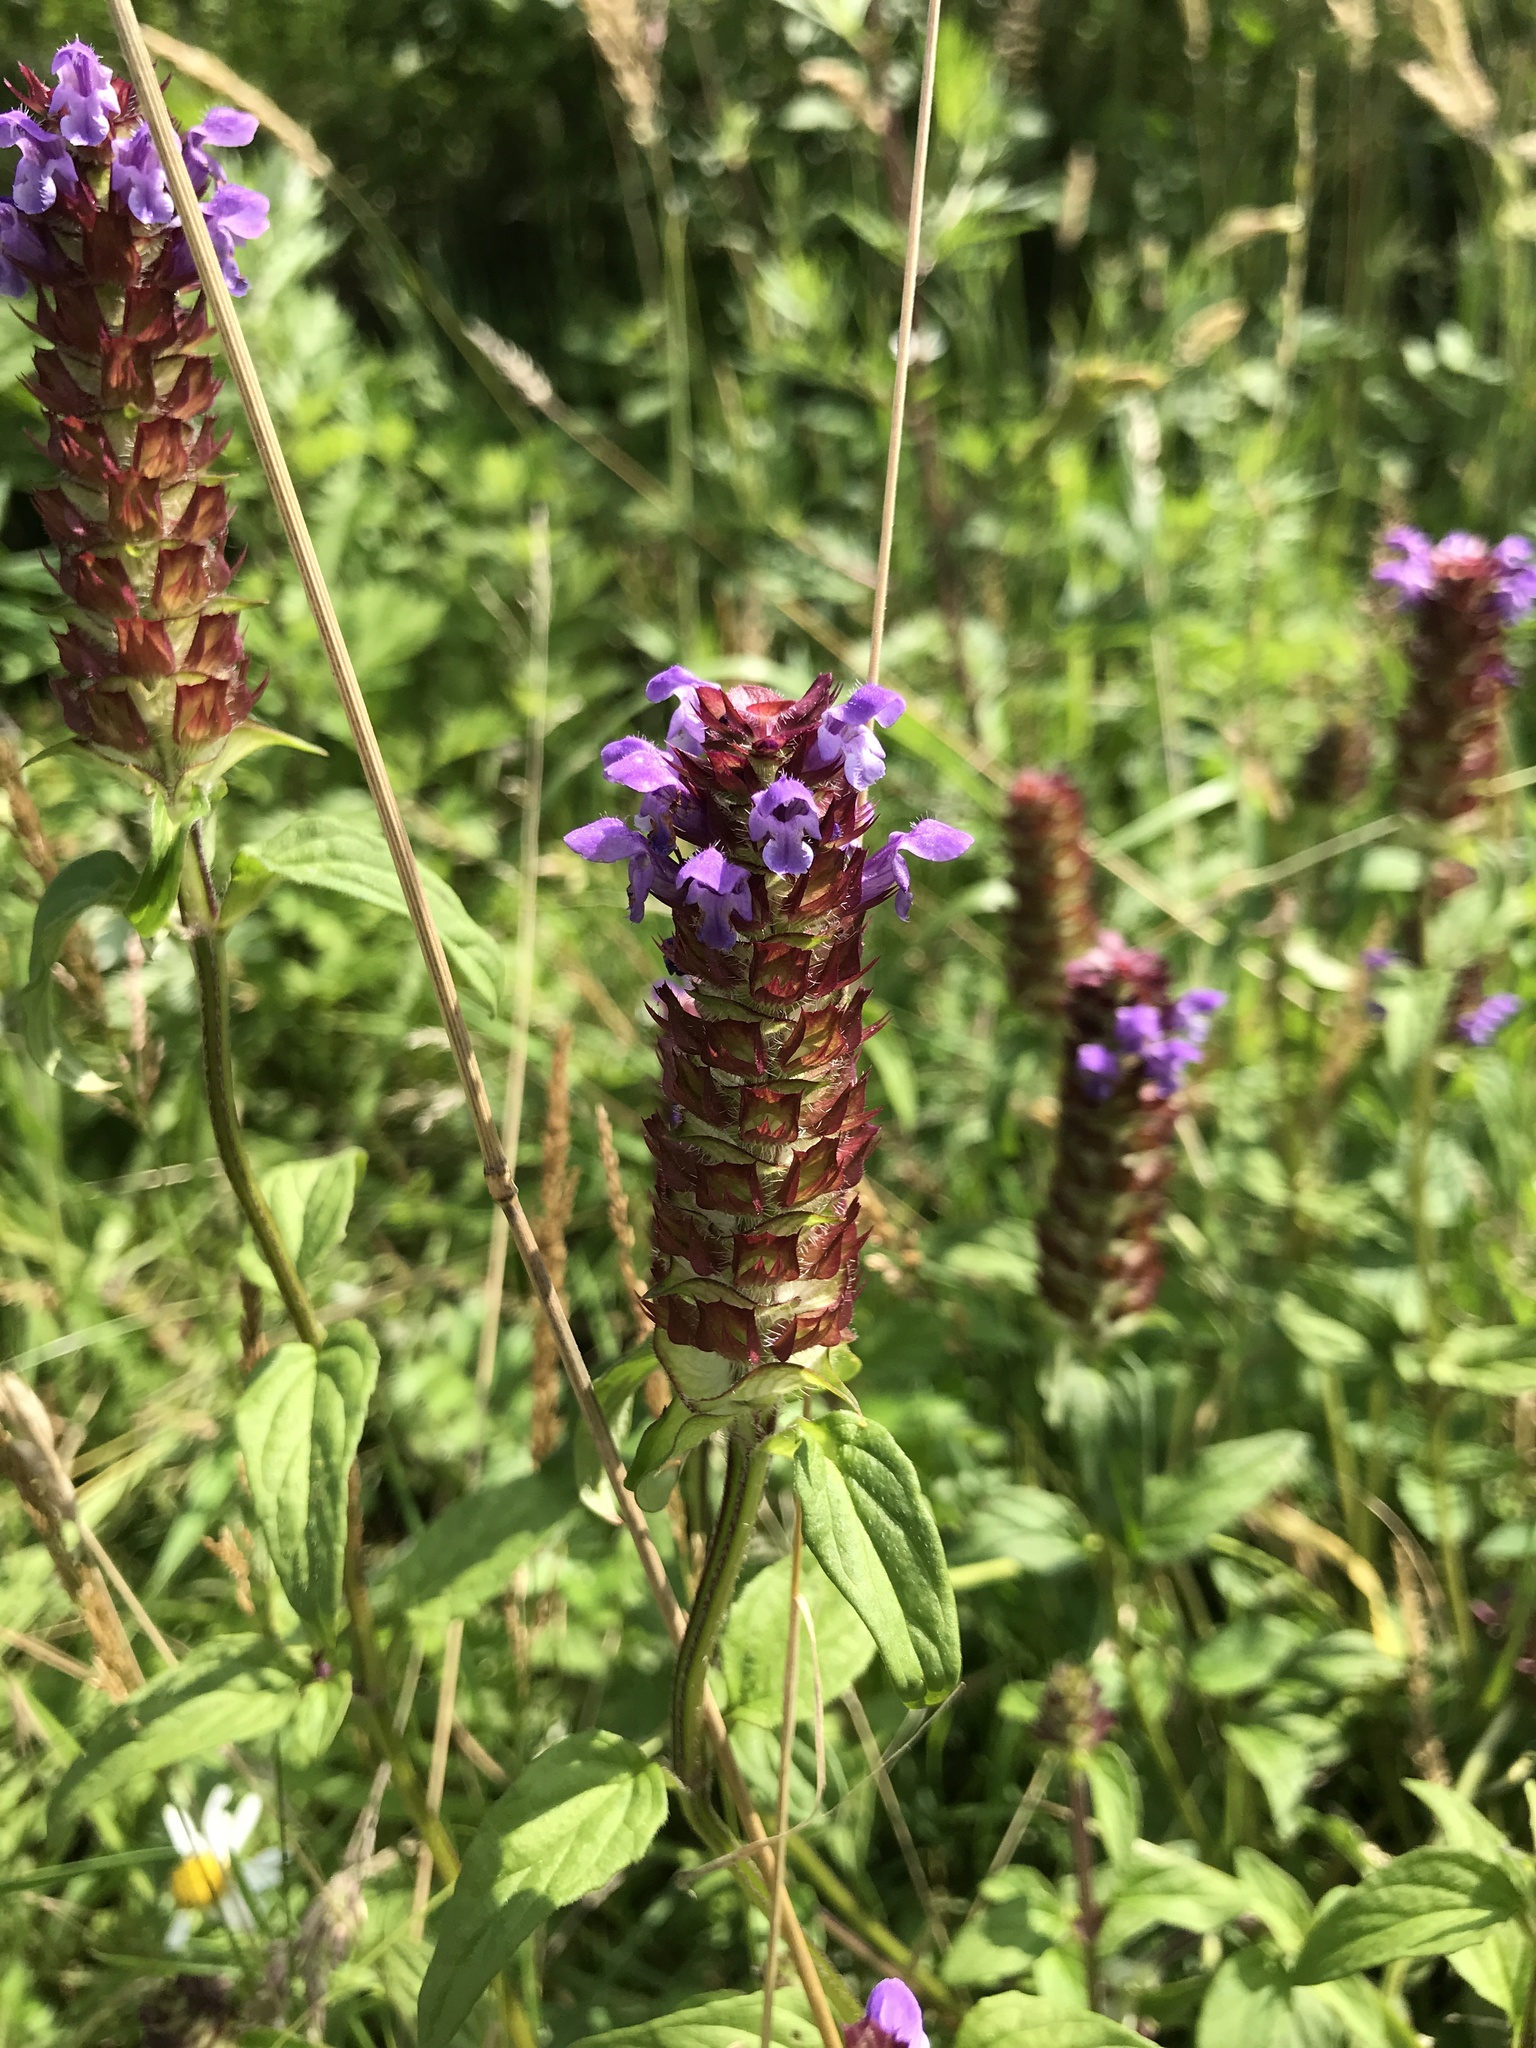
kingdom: Plantae
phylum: Tracheophyta
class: Magnoliopsida
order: Lamiales
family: Lamiaceae
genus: Prunella
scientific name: Prunella vulgaris
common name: Heal-all
